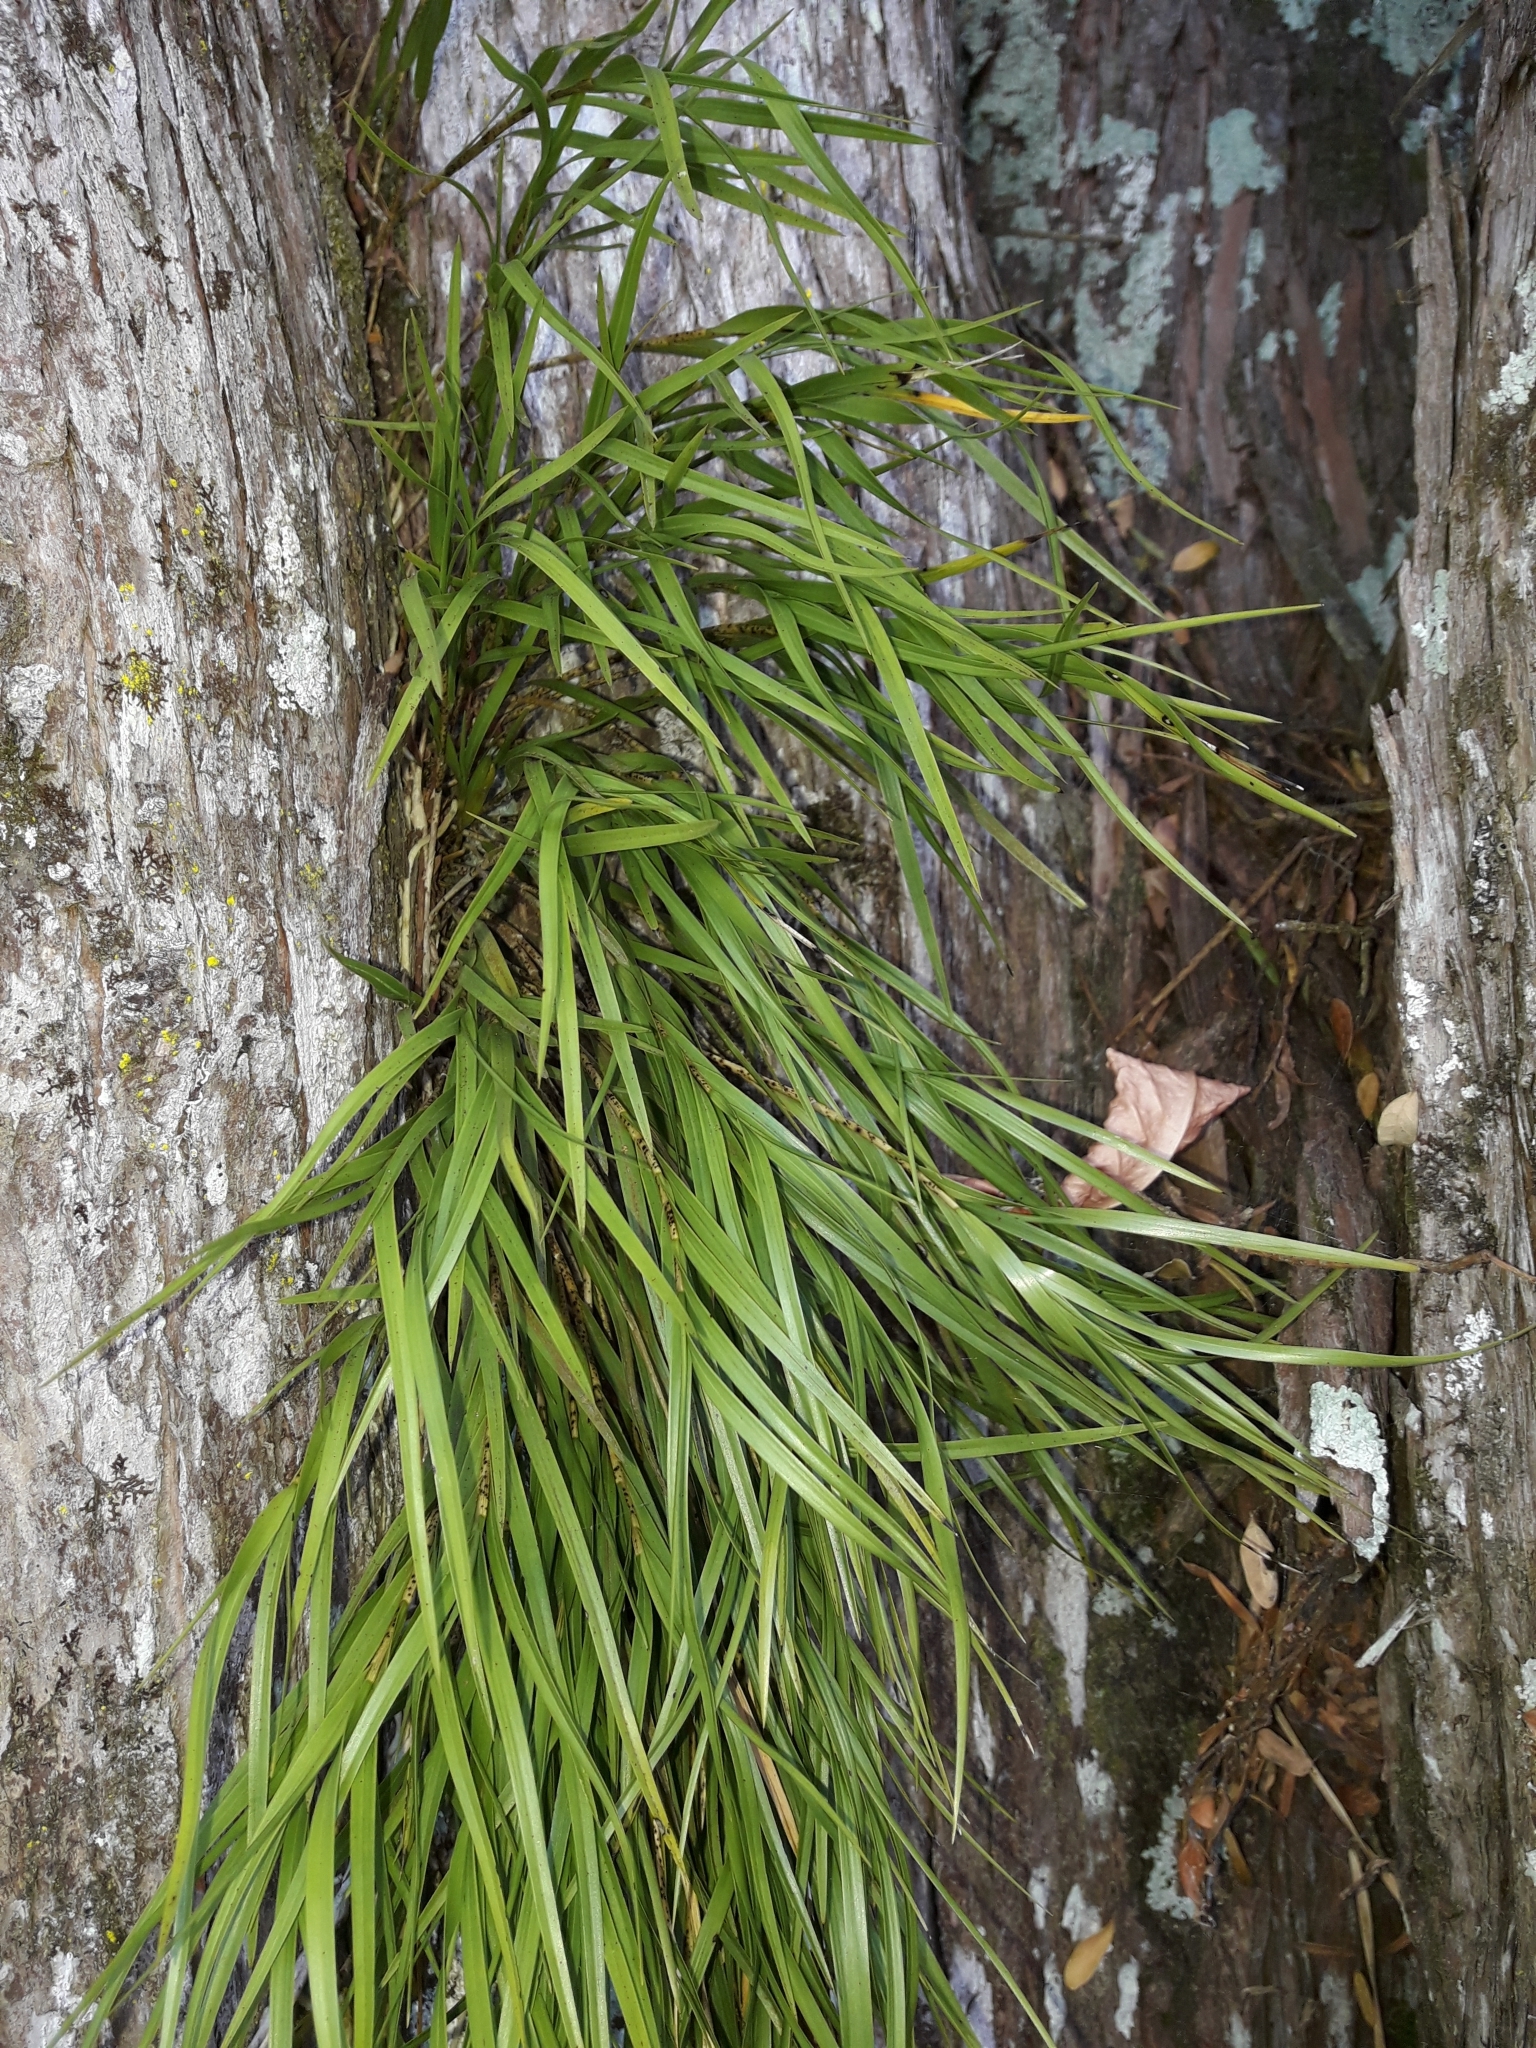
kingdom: Plantae
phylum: Tracheophyta
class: Liliopsida
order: Asparagales
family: Orchidaceae
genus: Earina
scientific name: Earina mucronata
